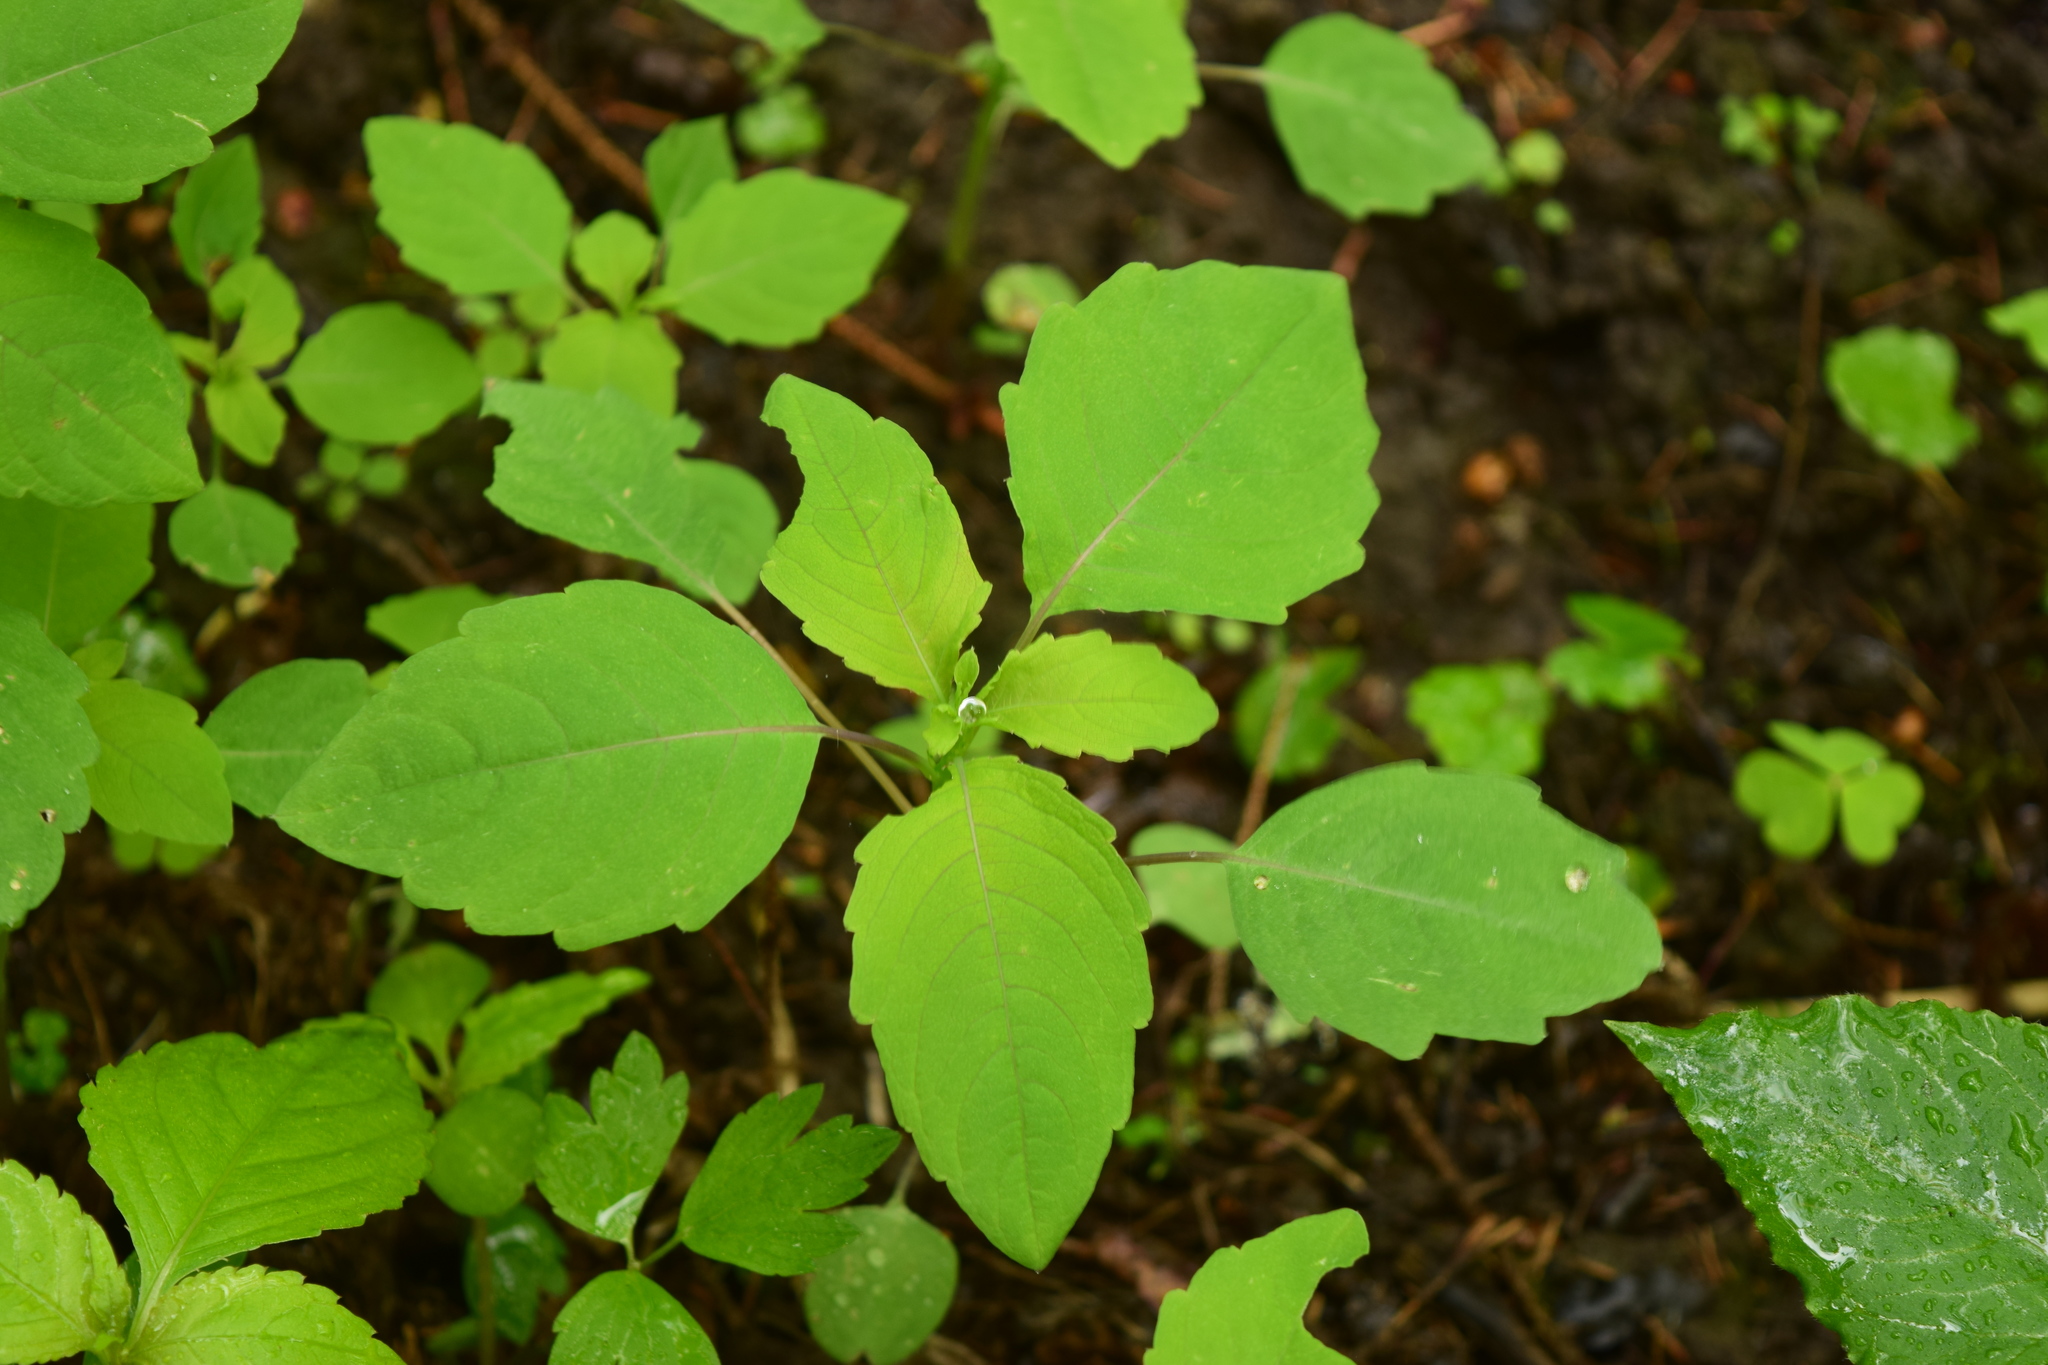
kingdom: Plantae
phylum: Tracheophyta
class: Magnoliopsida
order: Ericales
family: Balsaminaceae
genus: Impatiens
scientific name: Impatiens noli-tangere
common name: Touch-me-not balsam
